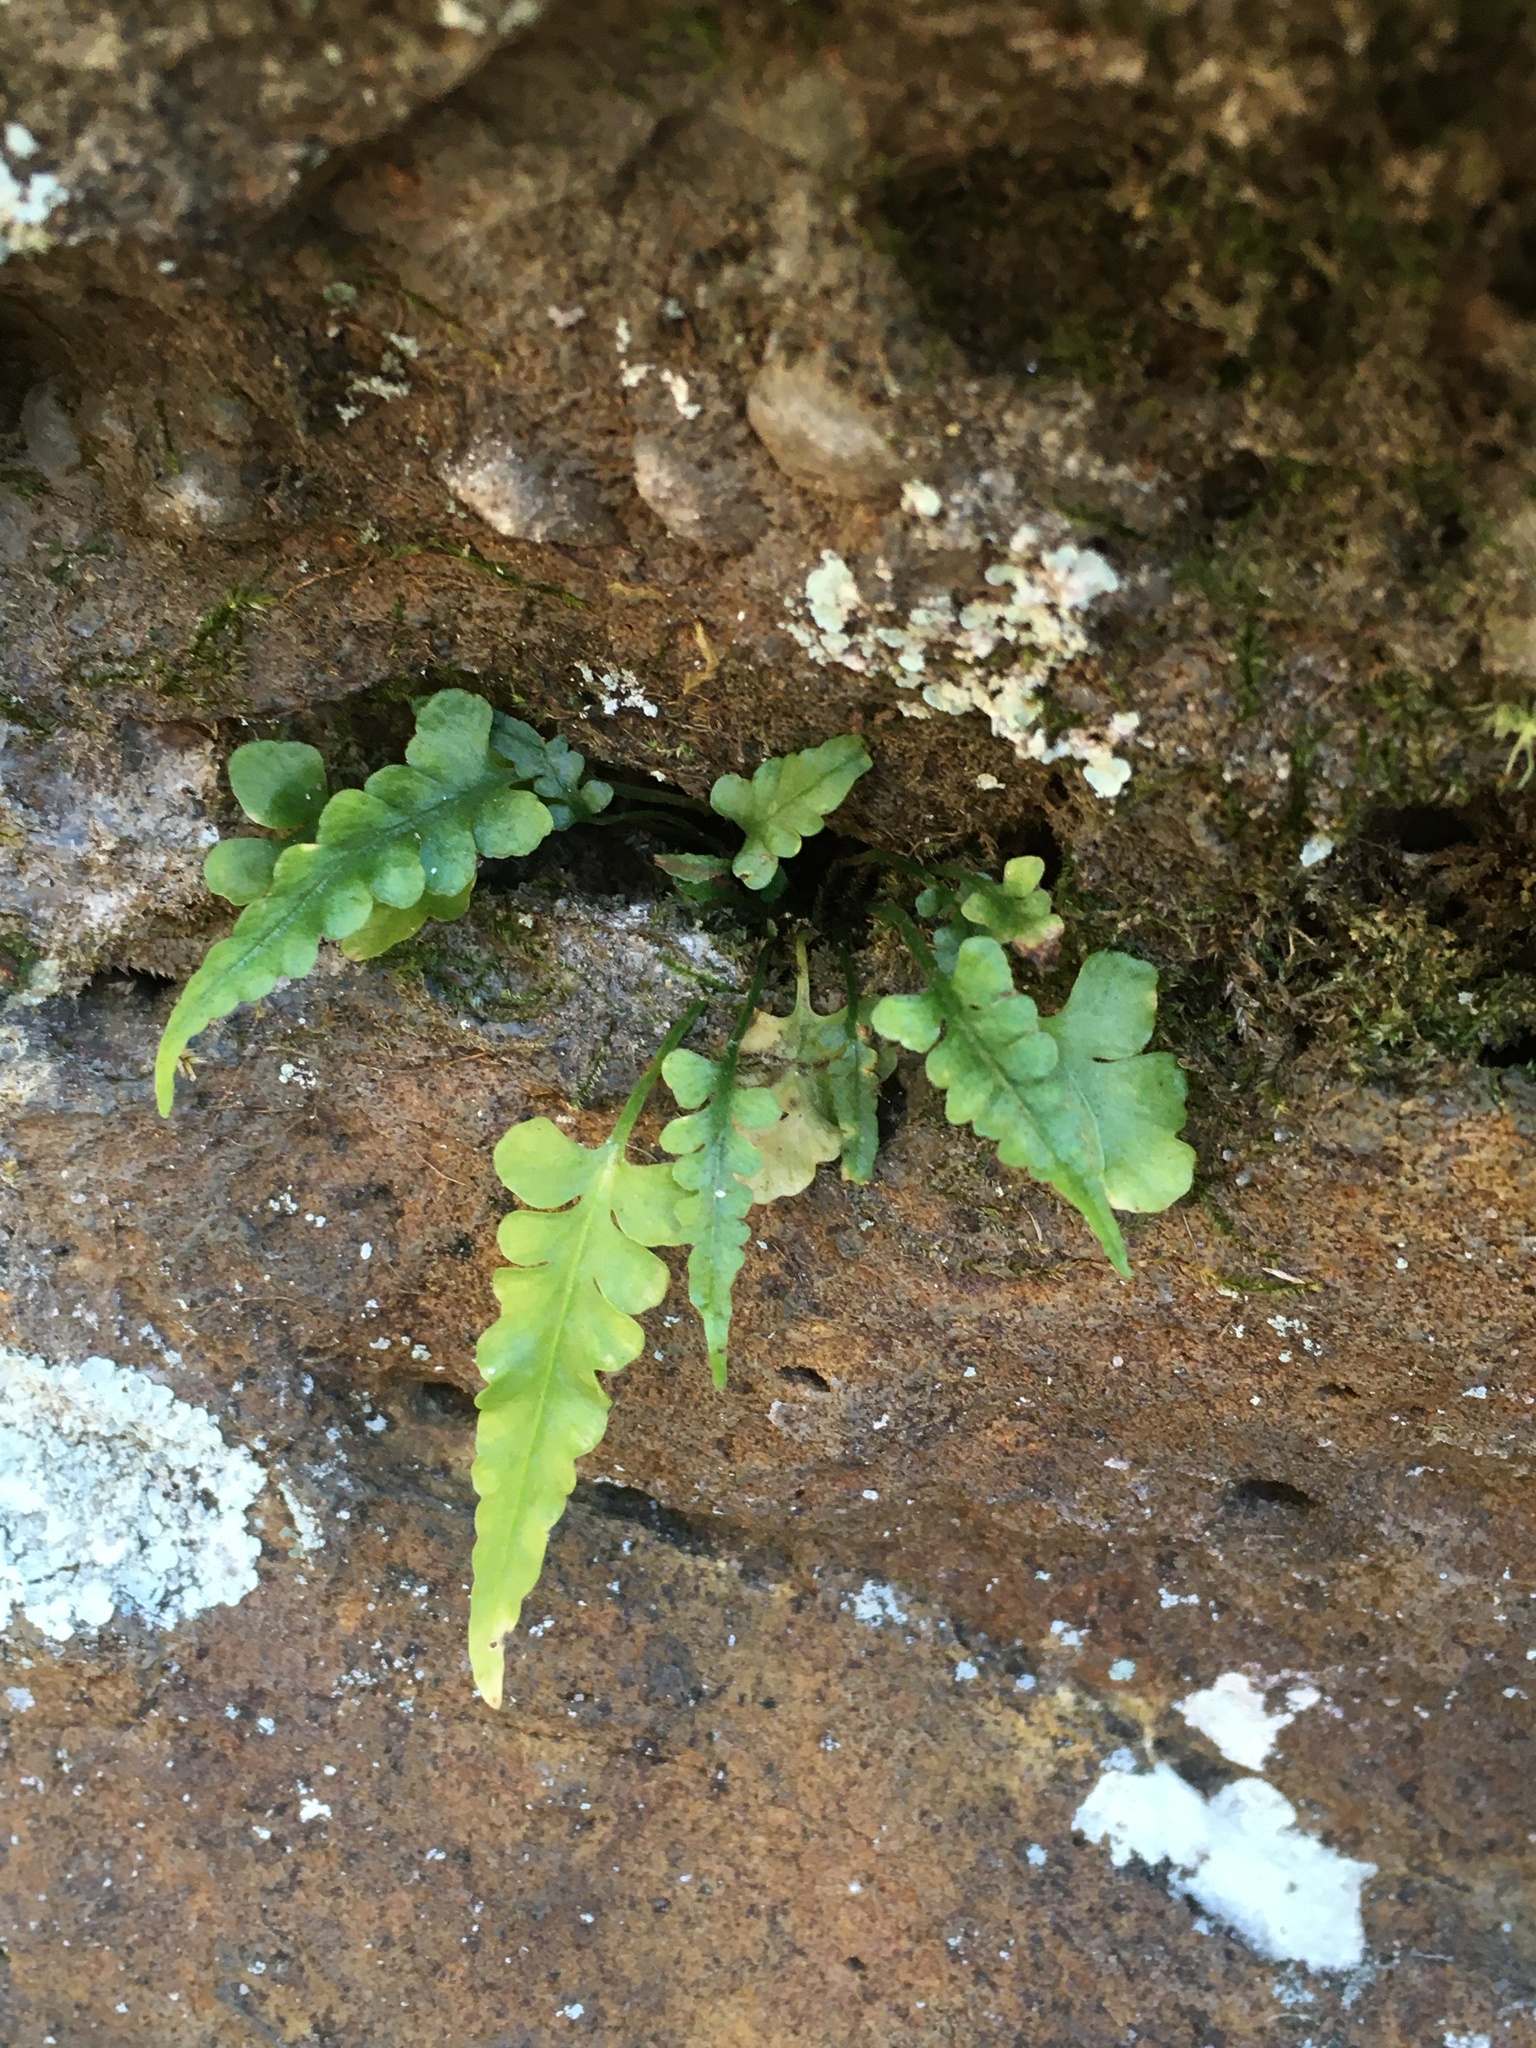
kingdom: Plantae
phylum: Tracheophyta
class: Polypodiopsida
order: Polypodiales
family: Aspleniaceae
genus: Asplenium
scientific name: Asplenium pinnatifidum
